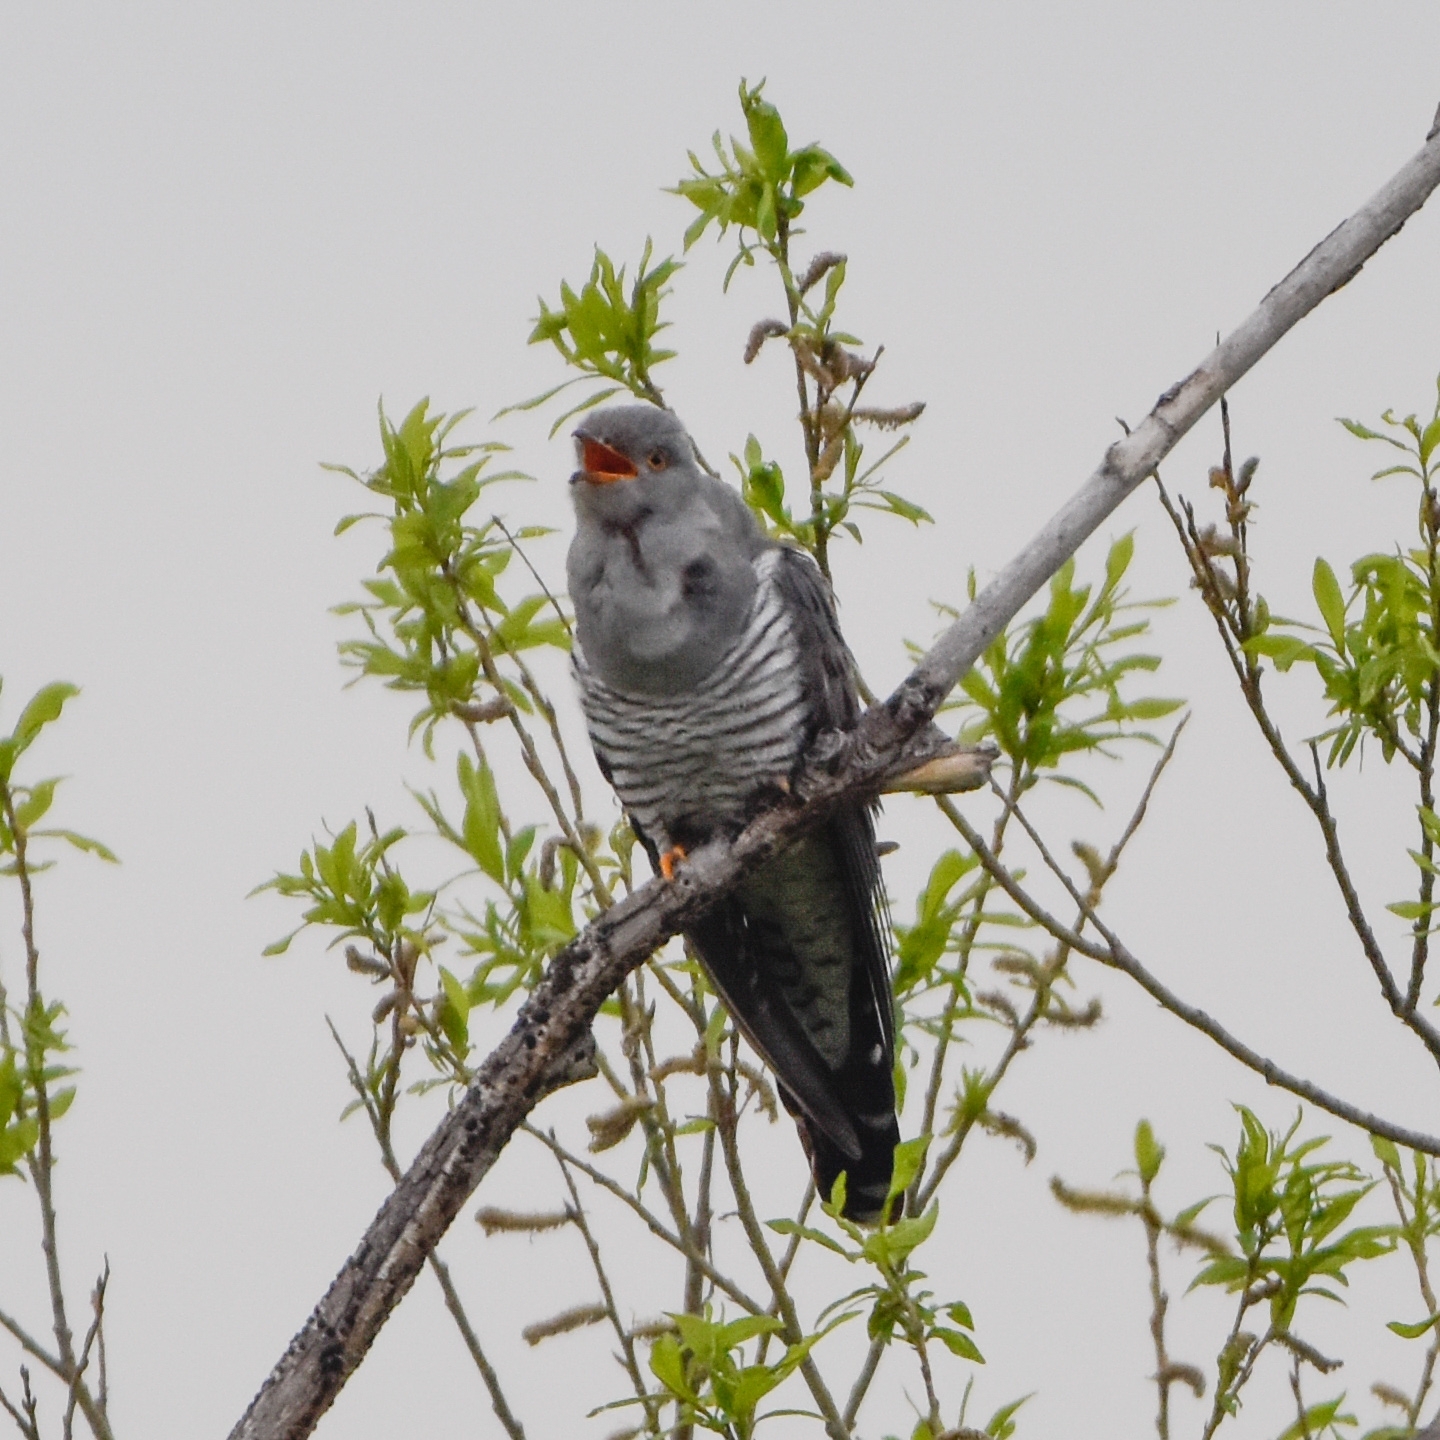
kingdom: Animalia
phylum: Chordata
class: Aves
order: Cuculiformes
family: Cuculidae
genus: Cuculus
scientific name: Cuculus canorus
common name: Common cuckoo
